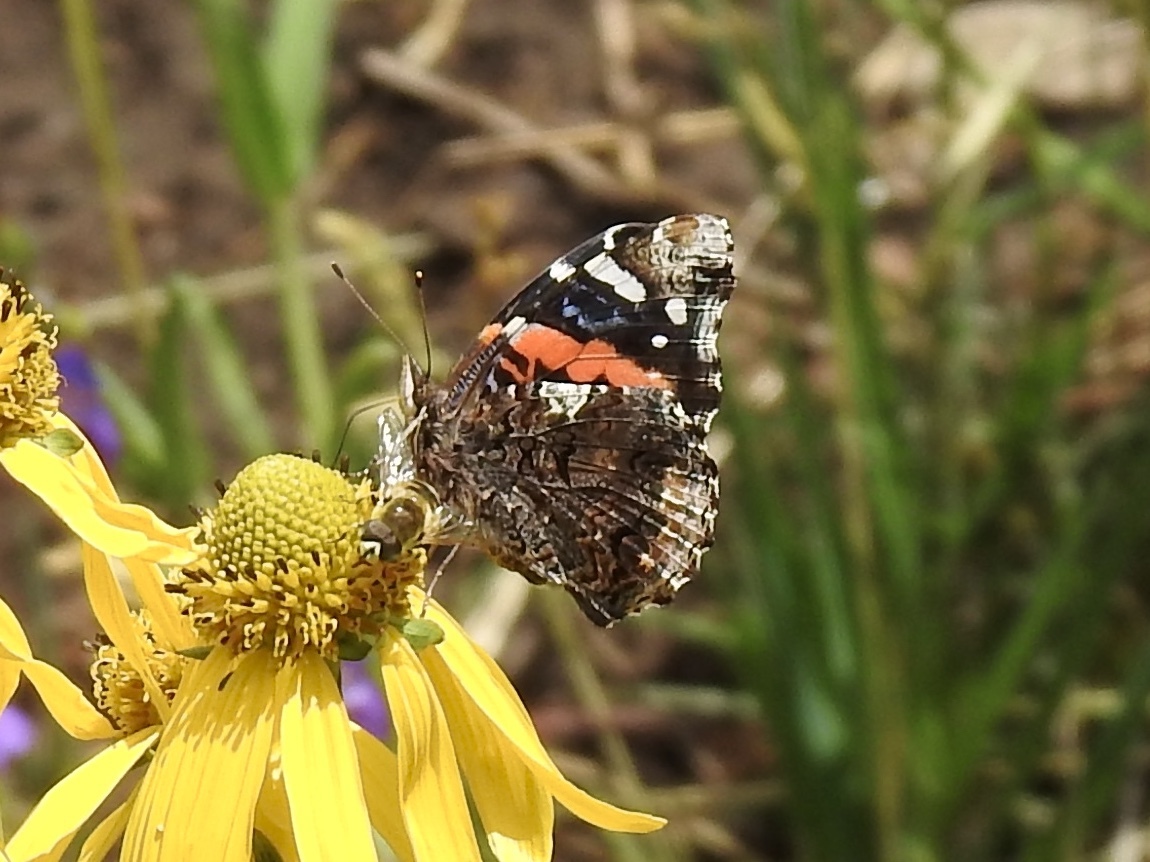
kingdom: Animalia
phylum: Arthropoda
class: Insecta
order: Lepidoptera
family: Nymphalidae
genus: Vanessa
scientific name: Vanessa atalanta
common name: Red admiral
